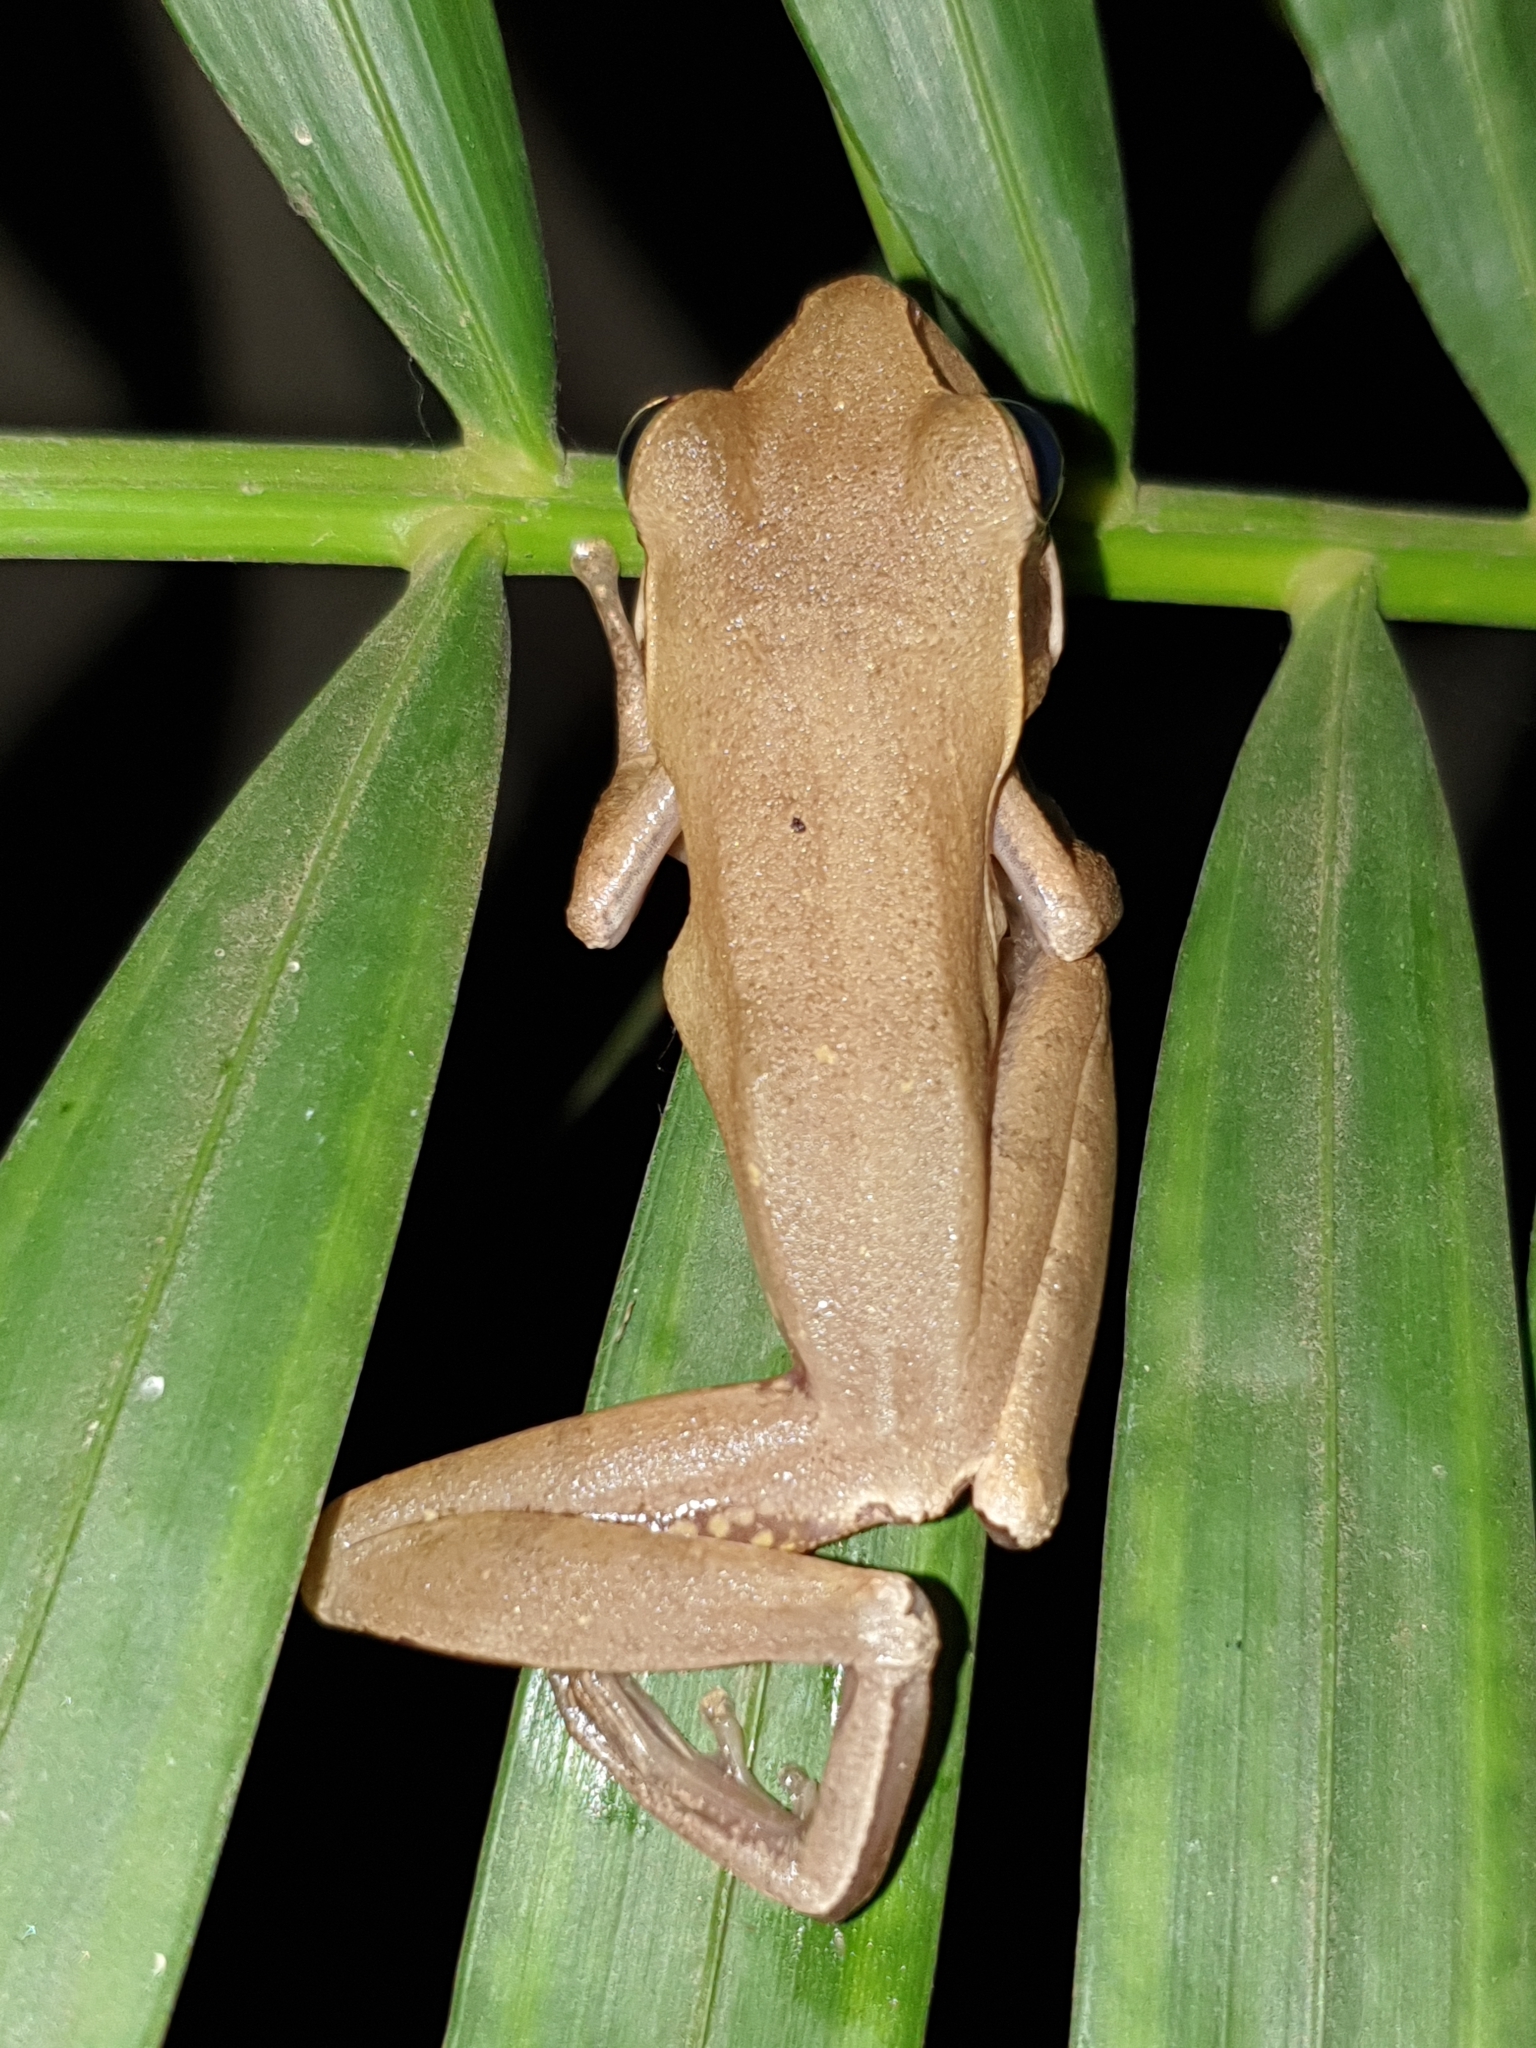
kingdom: Animalia
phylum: Chordata
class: Amphibia
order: Anura
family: Rhacophoridae
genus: Polypedates
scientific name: Polypedates maculatus
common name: Himalayan tree frog
